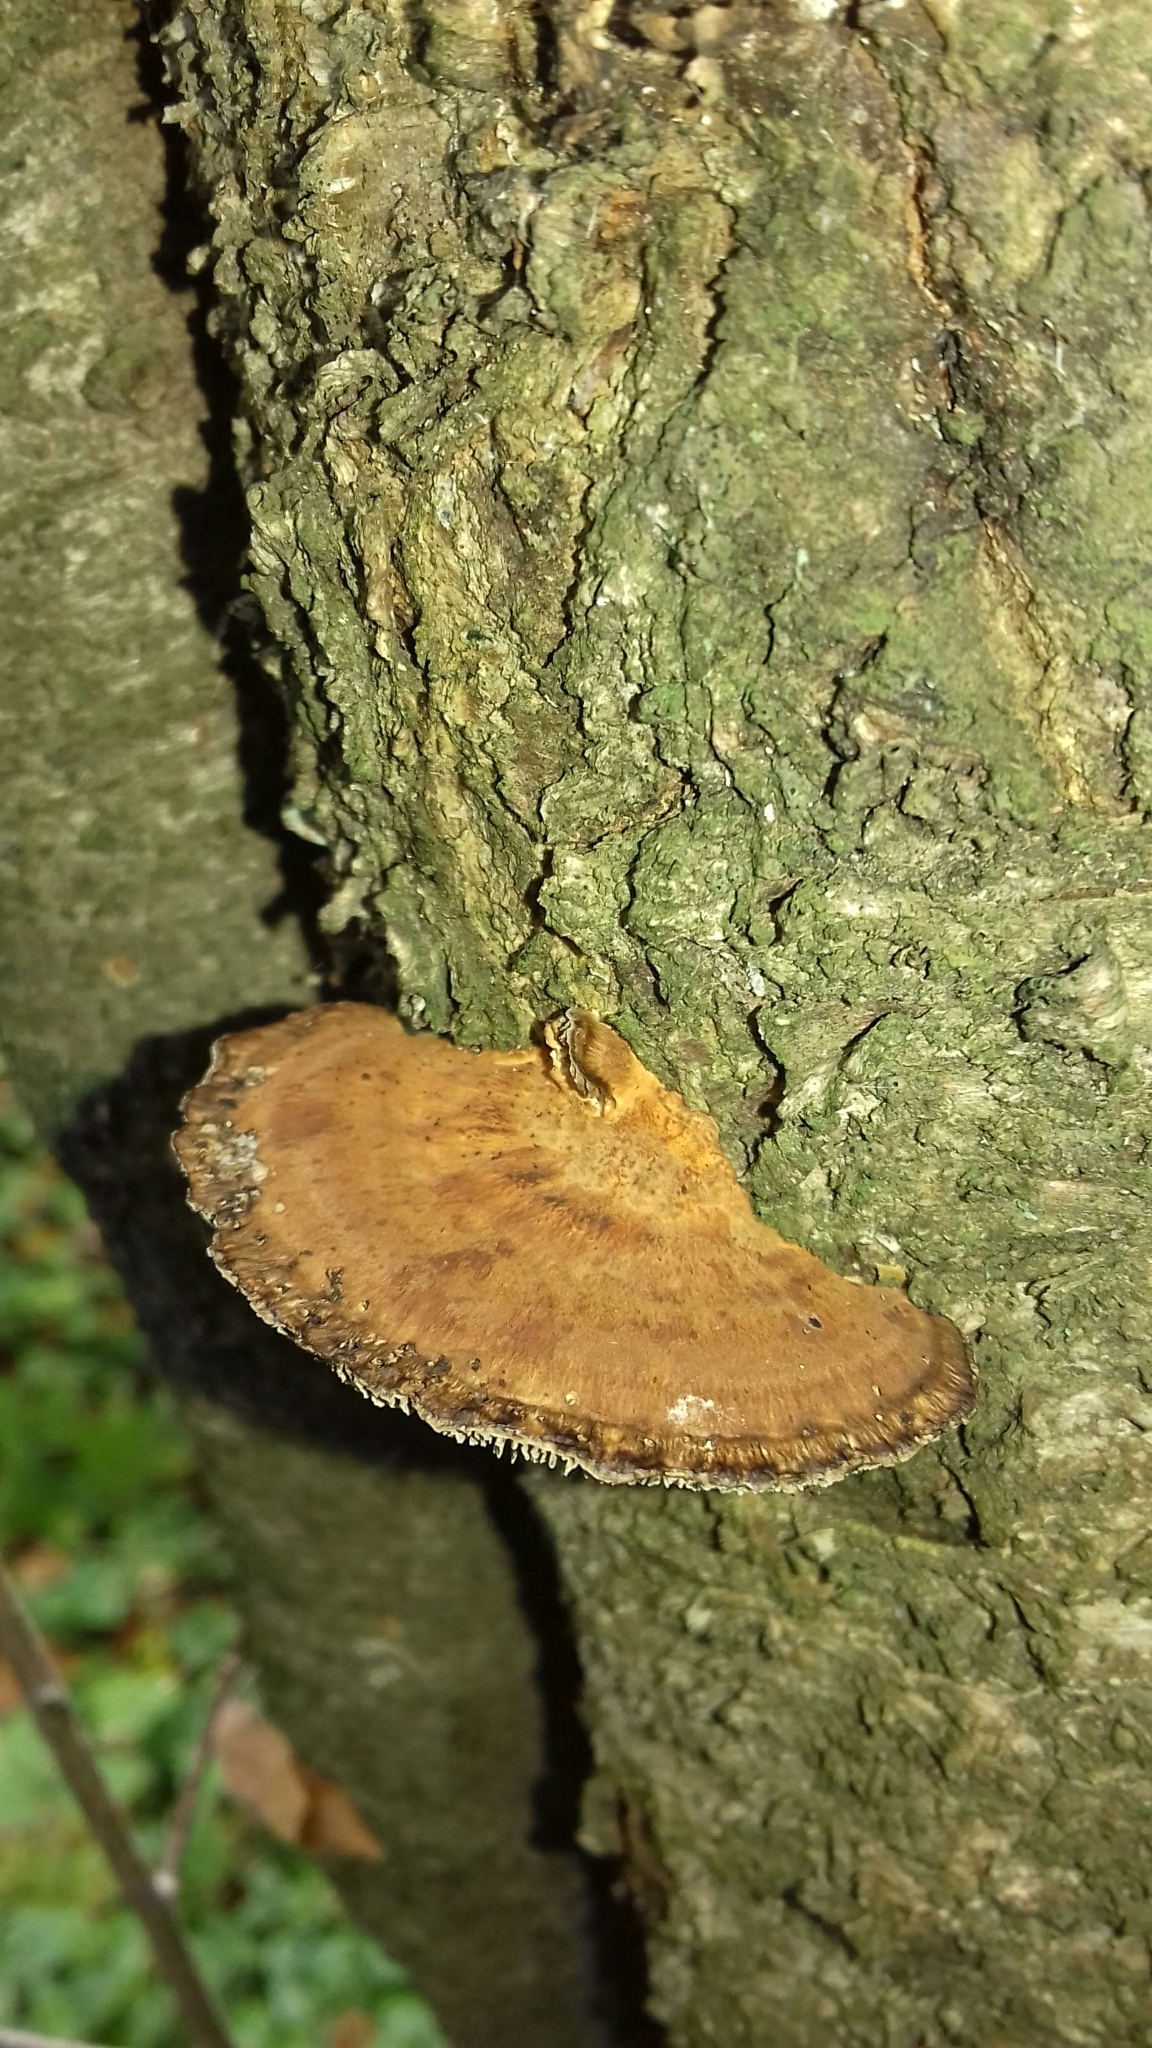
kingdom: Fungi
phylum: Basidiomycota
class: Agaricomycetes
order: Polyporales
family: Polyporaceae
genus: Daedaleopsis
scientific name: Daedaleopsis tricolor
